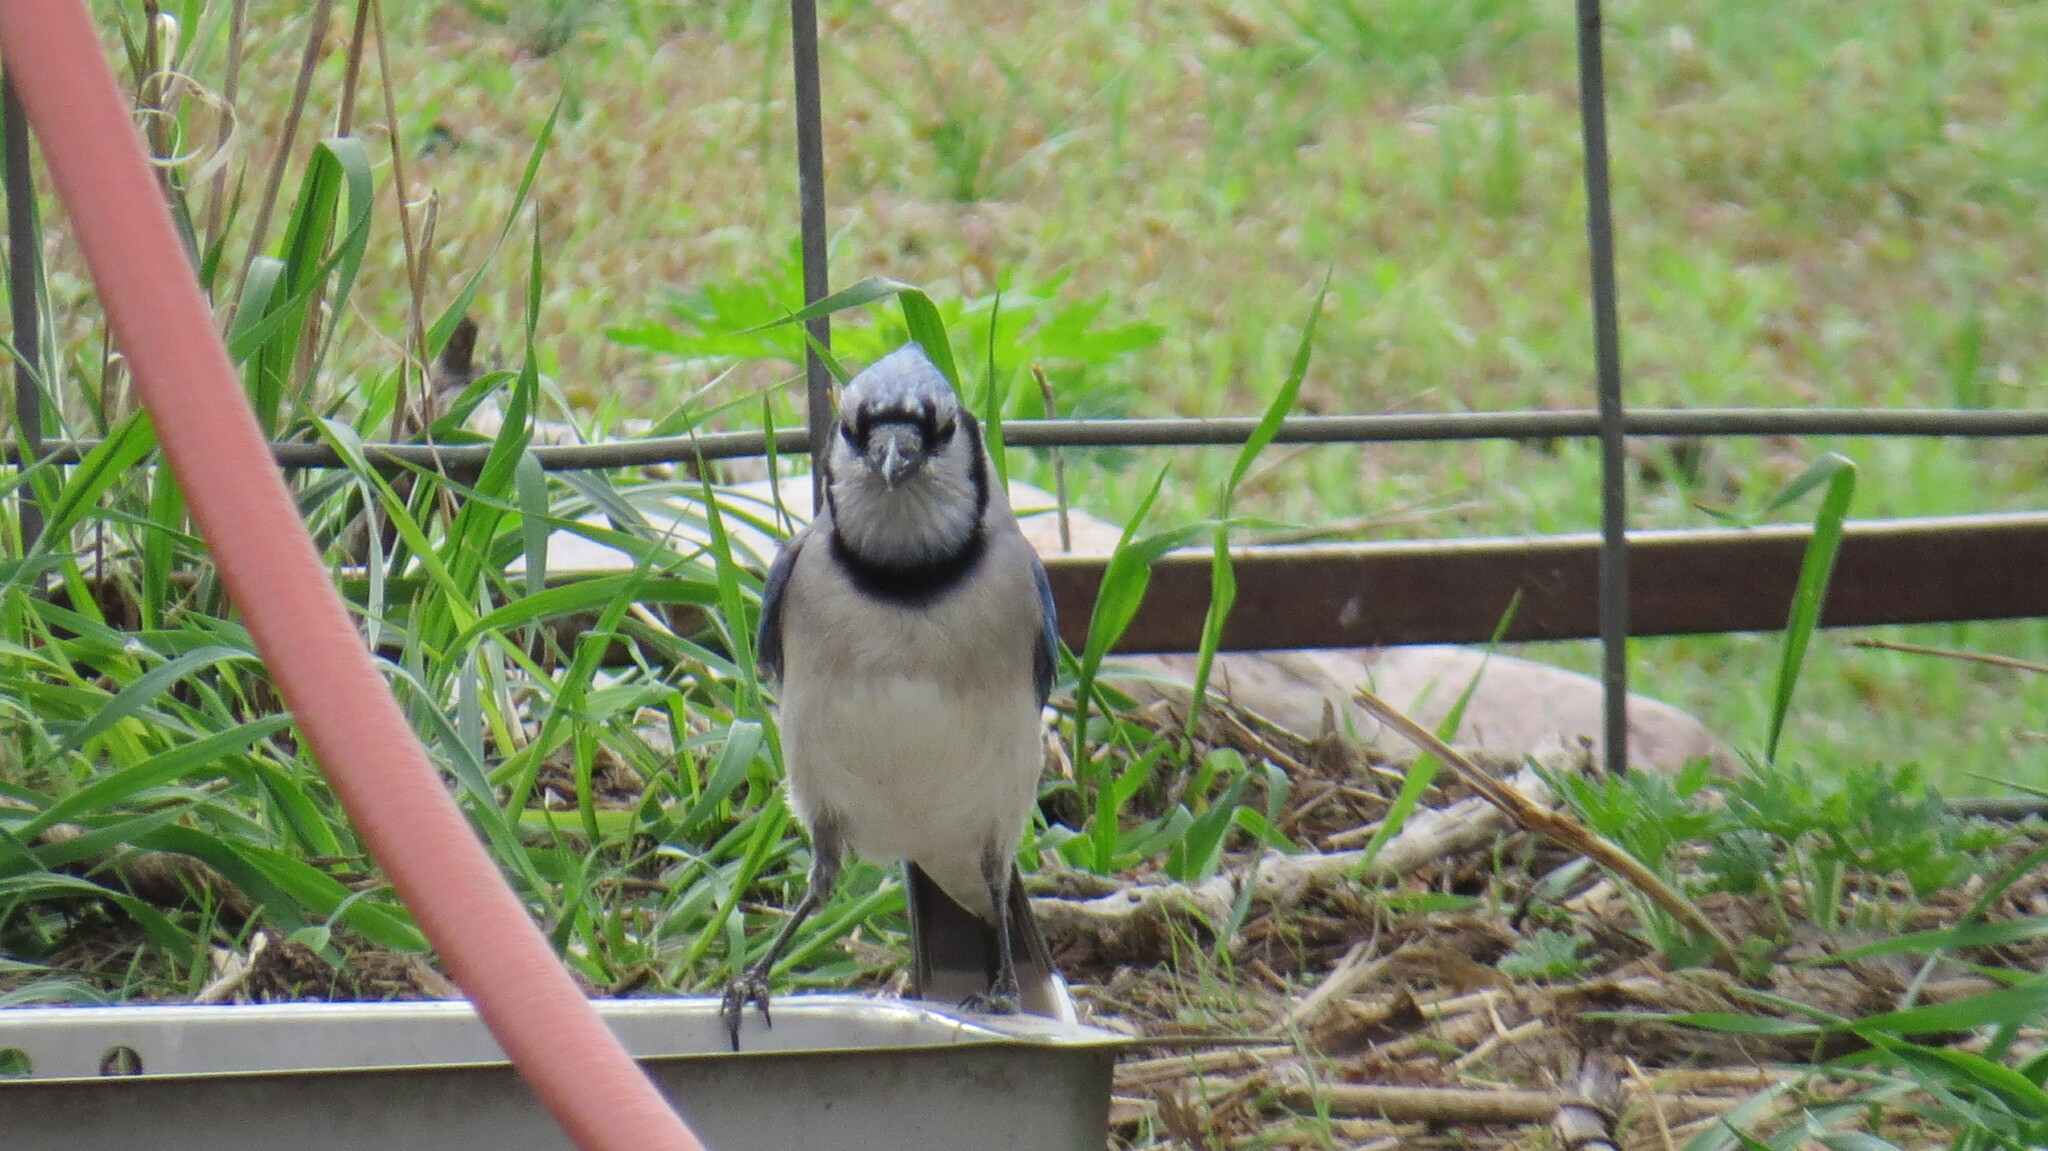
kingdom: Animalia
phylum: Chordata
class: Aves
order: Passeriformes
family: Corvidae
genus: Cyanocitta
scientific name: Cyanocitta cristata
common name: Blue jay
